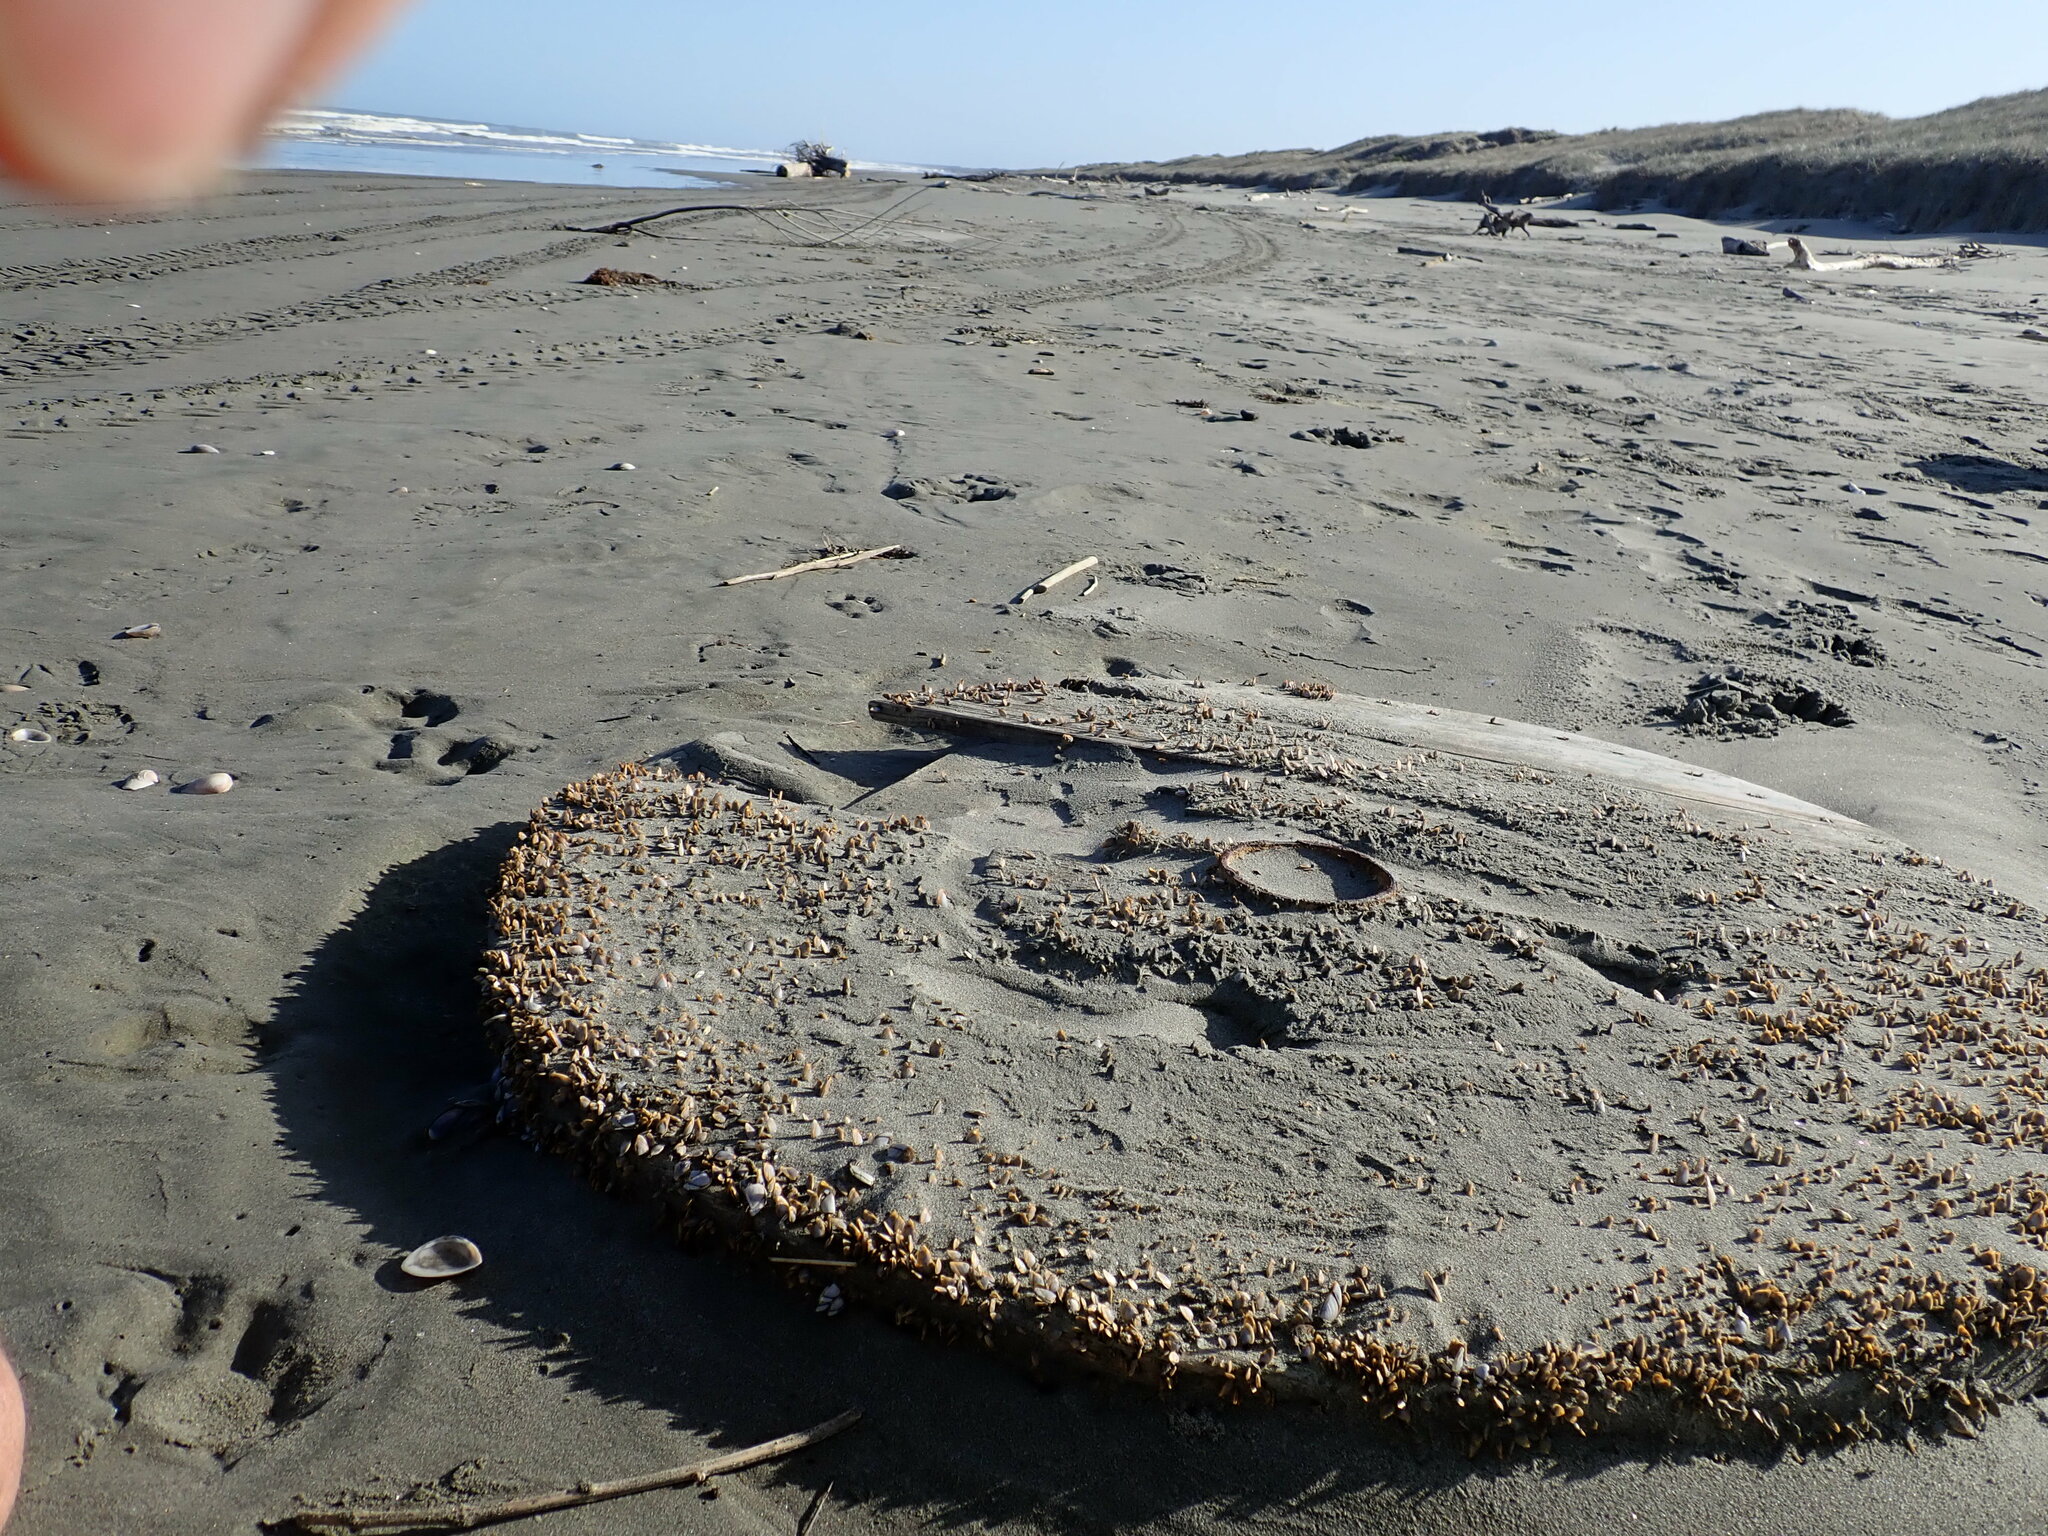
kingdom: Animalia
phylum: Arthropoda
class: Maxillopoda
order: Pedunculata
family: Lepadidae
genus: Lepas
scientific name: Lepas anatifera
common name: Common goose barnacle
